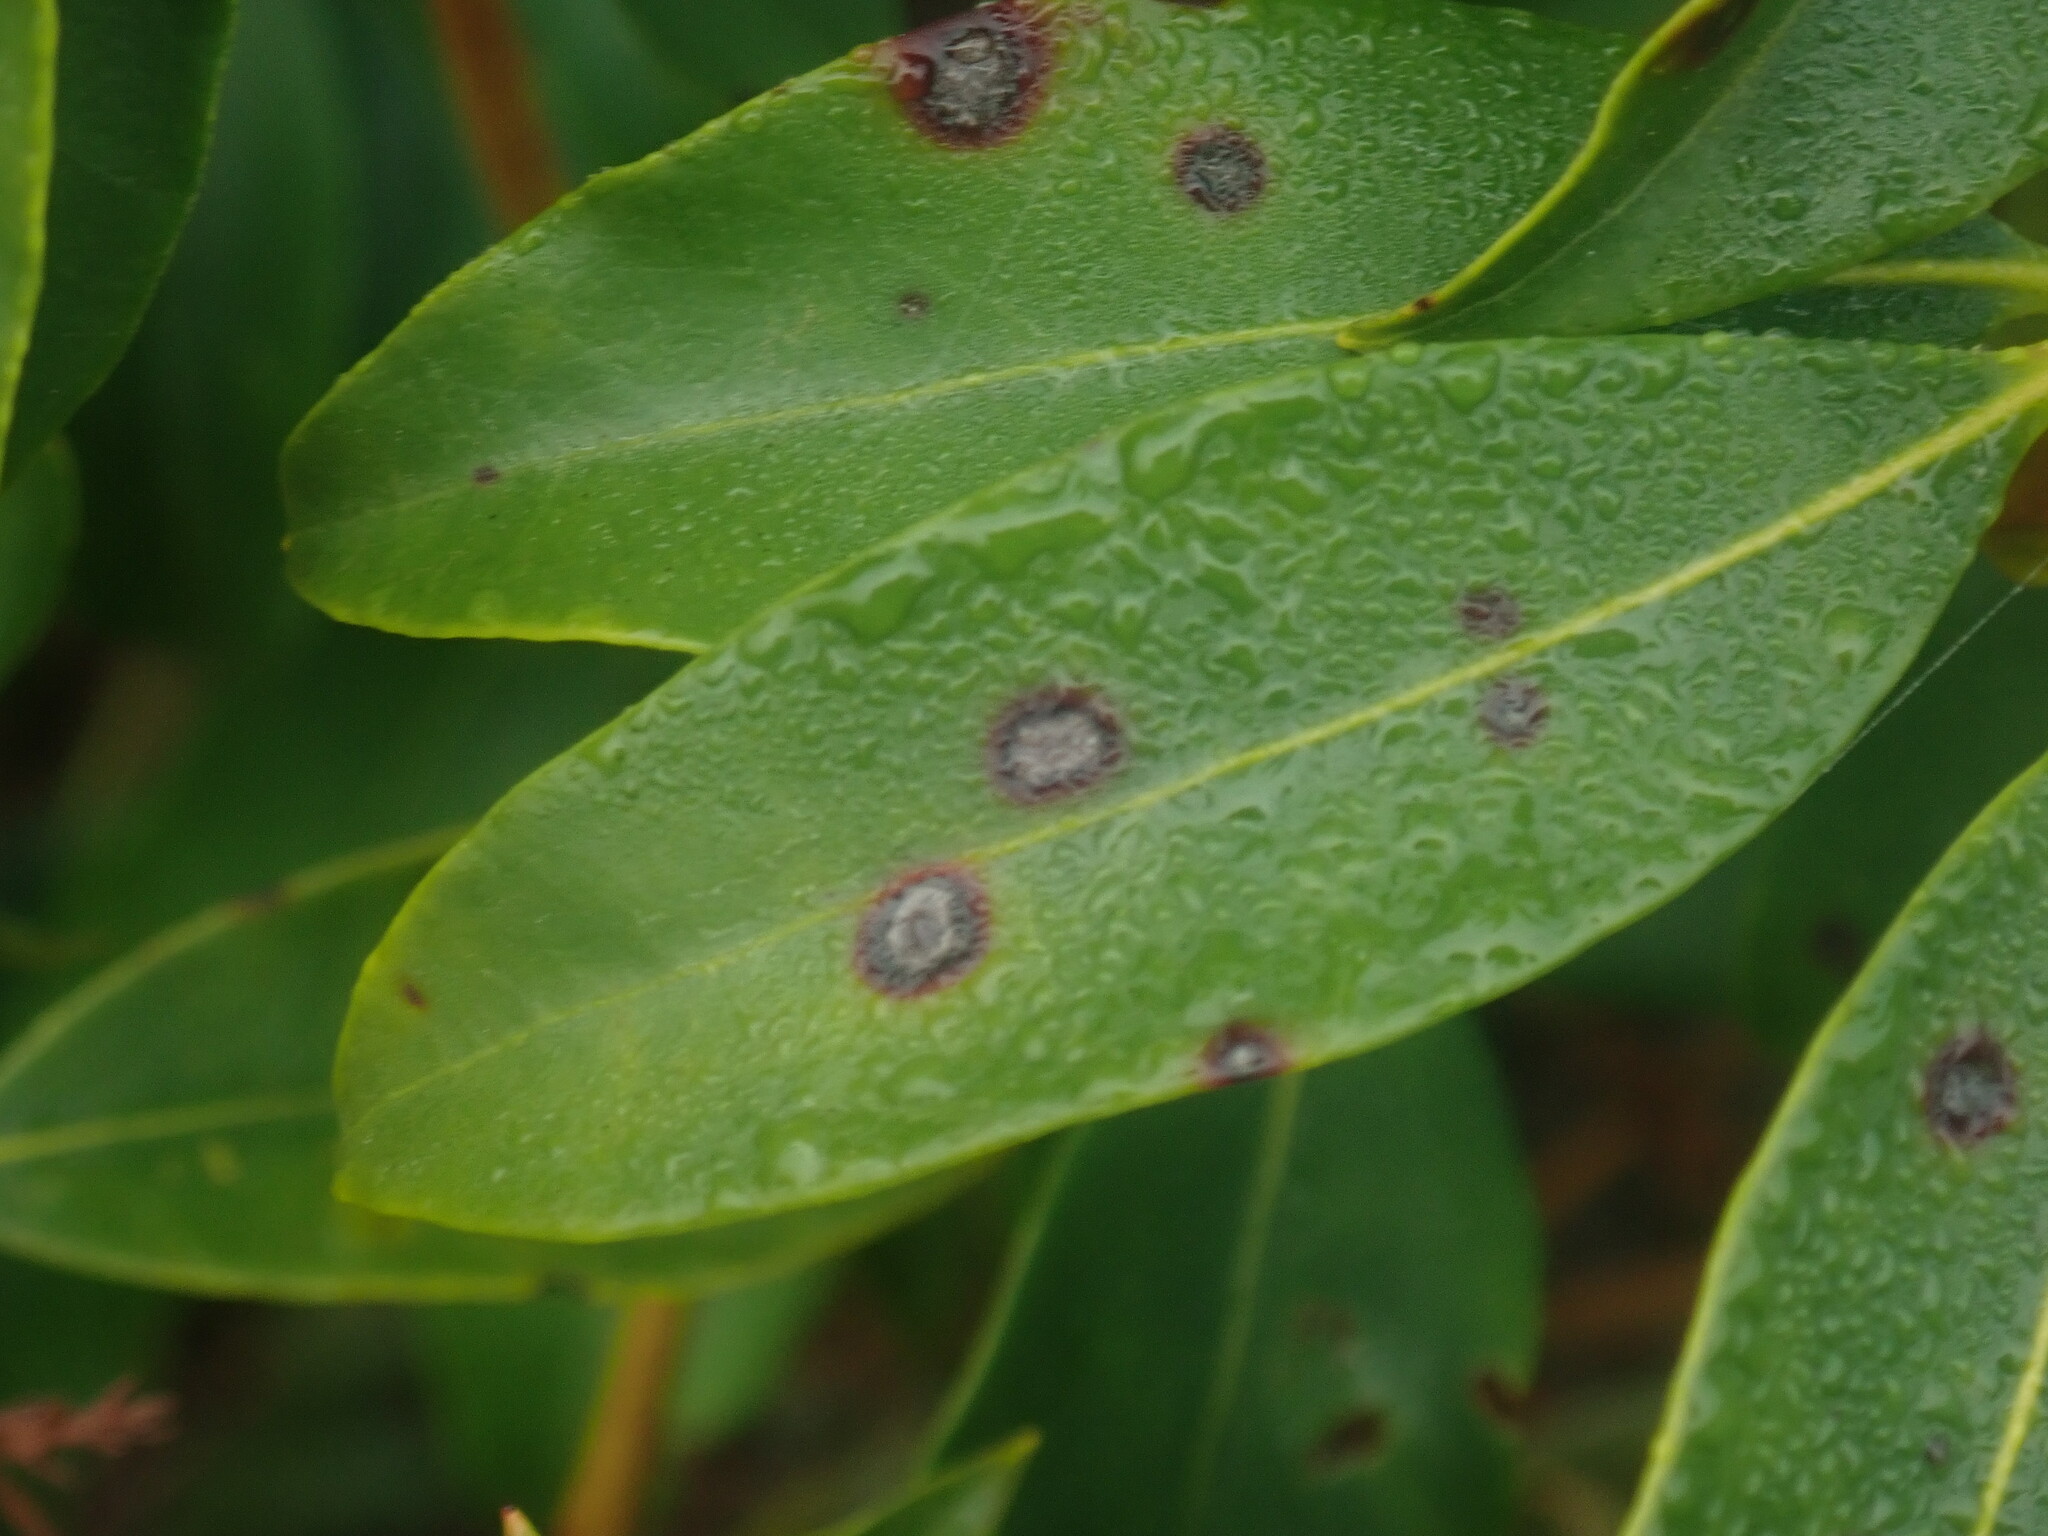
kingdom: Fungi
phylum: Ascomycota
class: Dothideomycetes
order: Mycosphaerellales
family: Mycosphaerellaceae
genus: Mycosphaerella
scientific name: Mycosphaerella colorata
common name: Mountain laurel leaf spot
